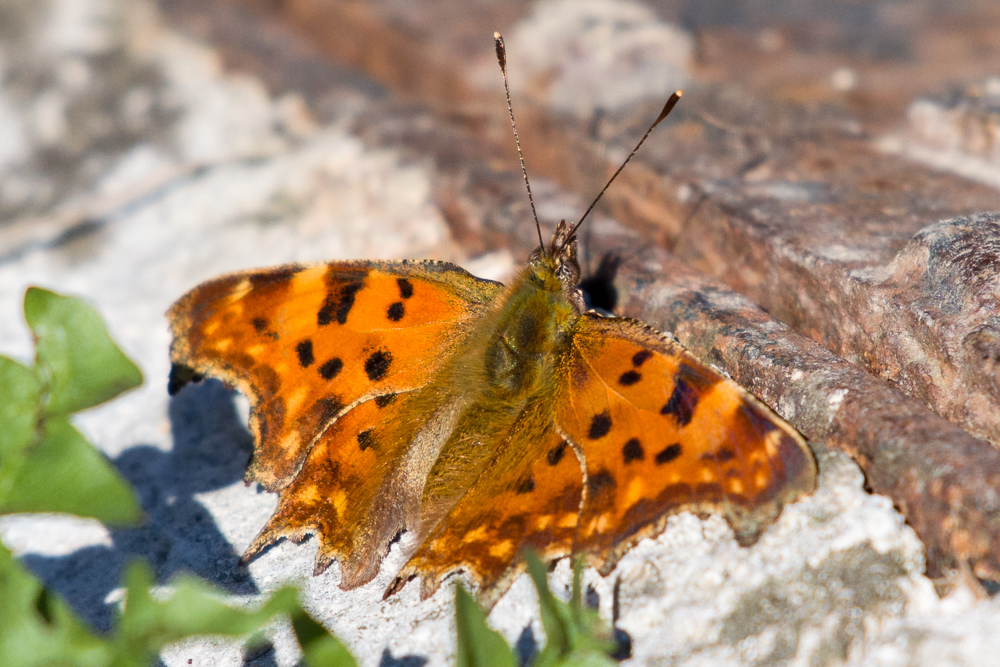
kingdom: Animalia
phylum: Arthropoda
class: Insecta
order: Lepidoptera
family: Nymphalidae
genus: Polygonia
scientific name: Polygonia c-album
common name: Comma
